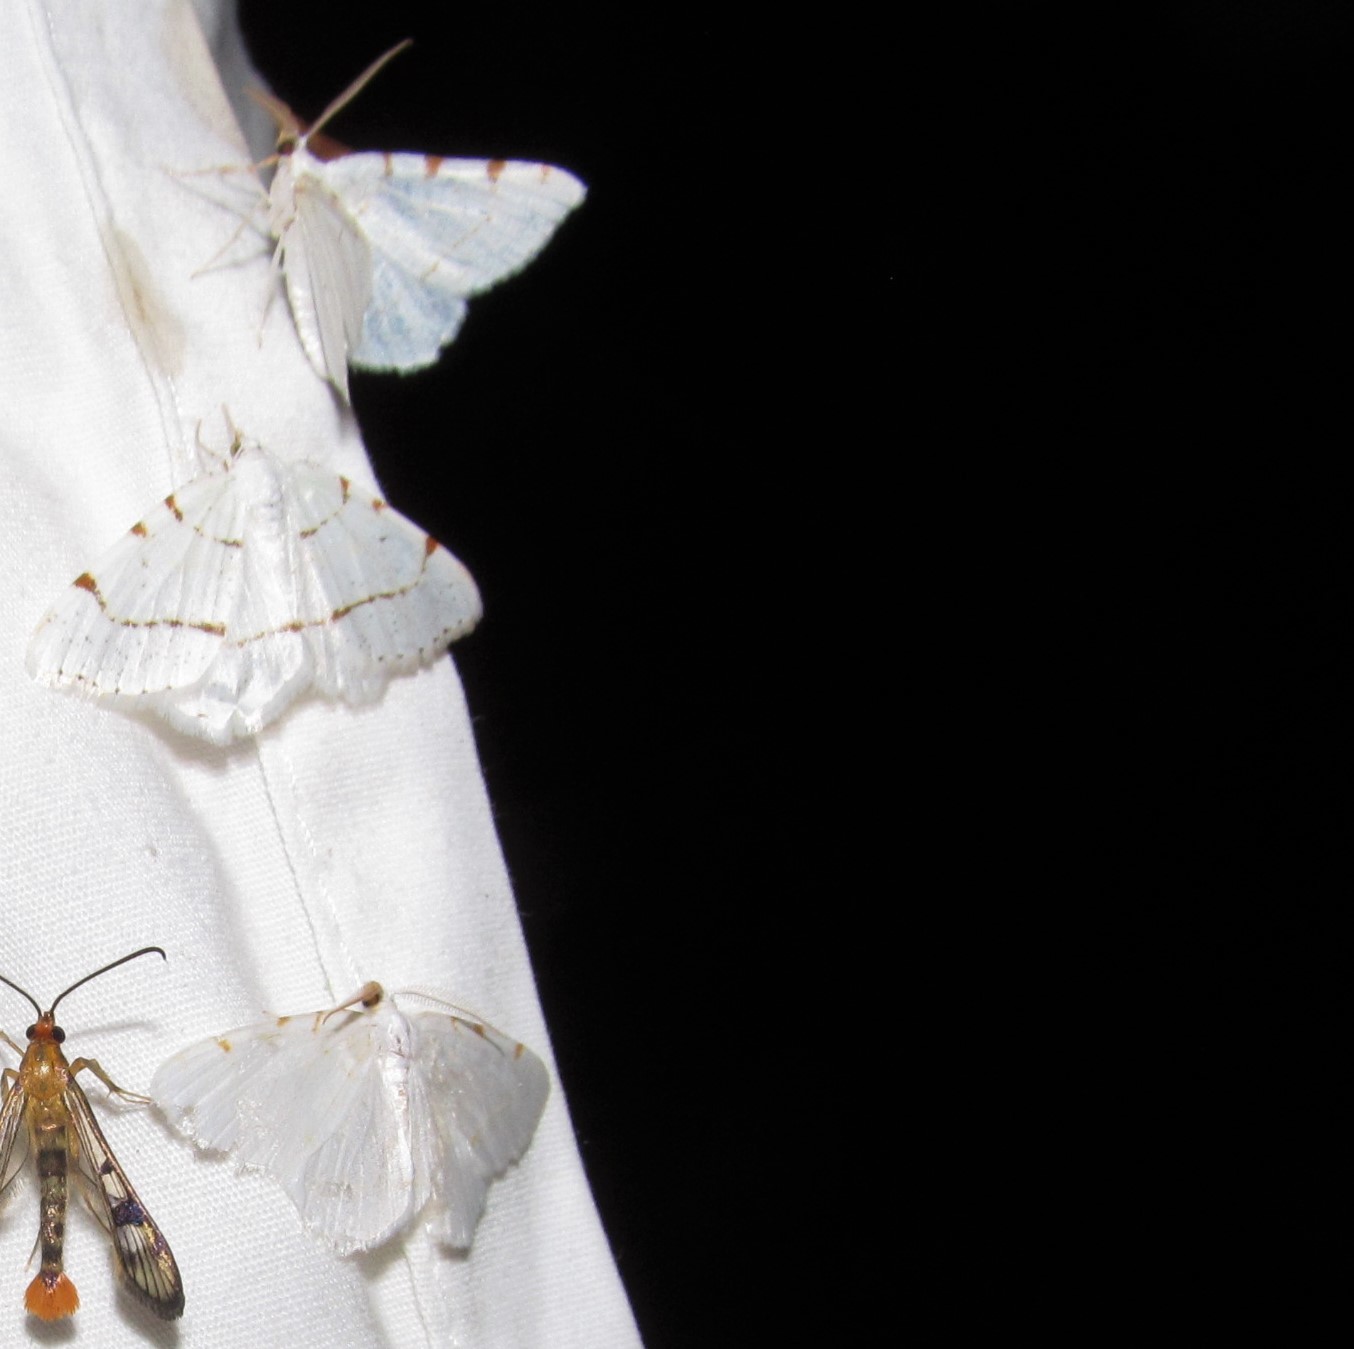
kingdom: Animalia
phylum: Arthropoda
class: Insecta
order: Lepidoptera
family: Geometridae
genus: Macaria
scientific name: Macaria pustularia
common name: Lesser maple spanworm moth
